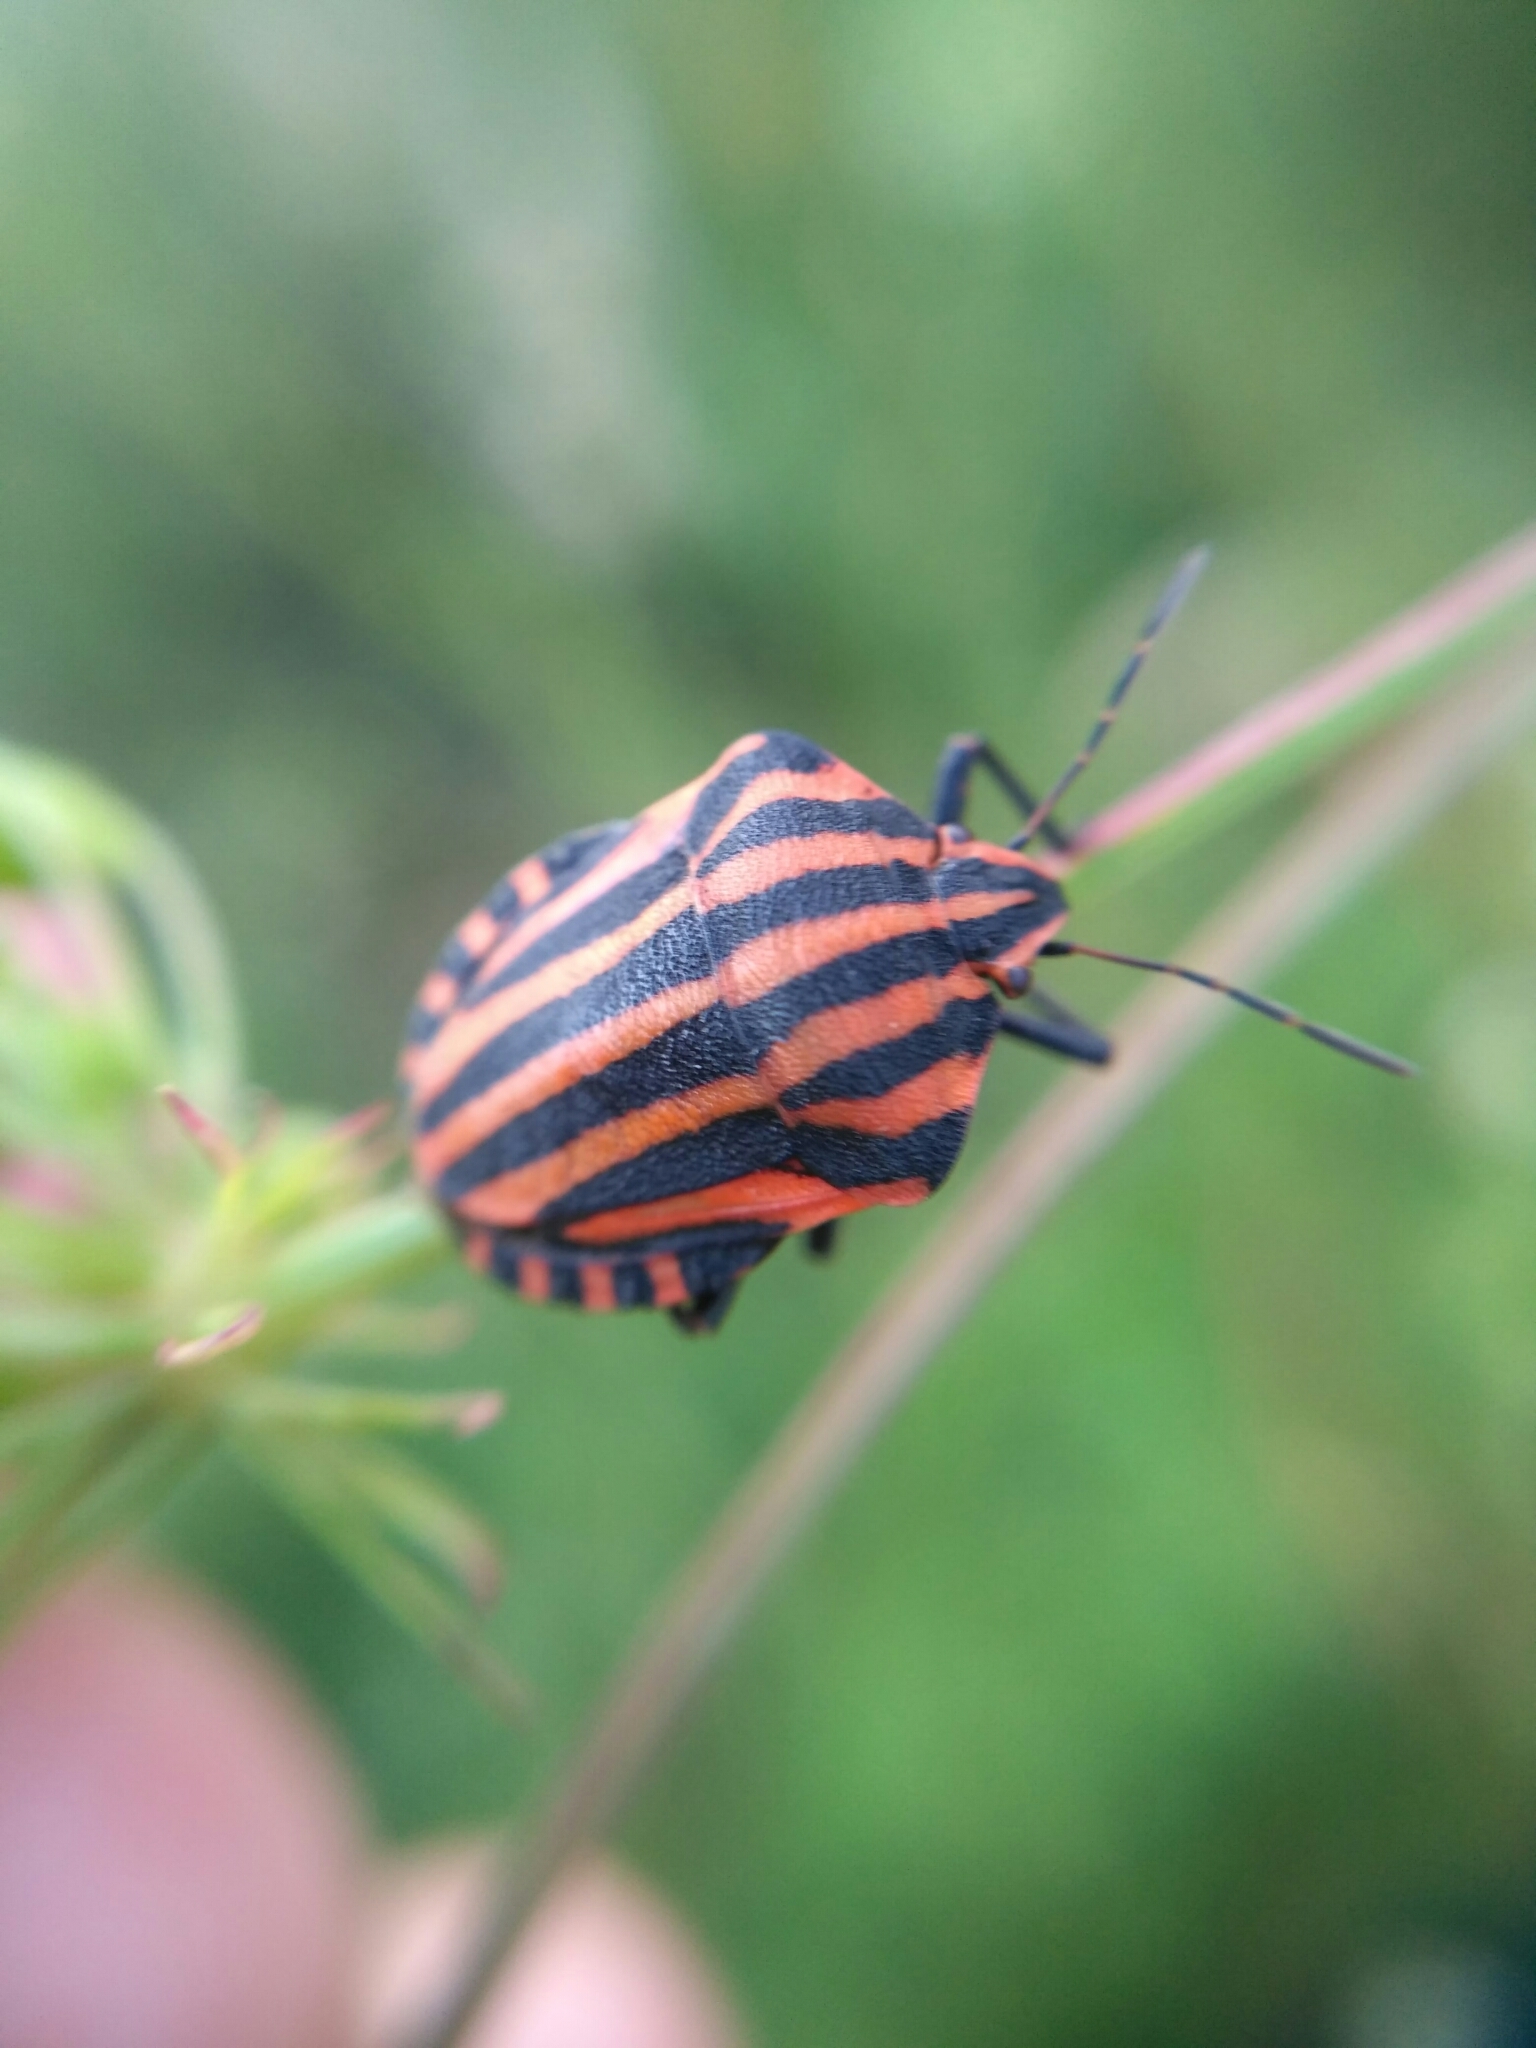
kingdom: Animalia
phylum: Arthropoda
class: Insecta
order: Hemiptera
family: Pentatomidae
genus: Graphosoma
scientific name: Graphosoma italicum
